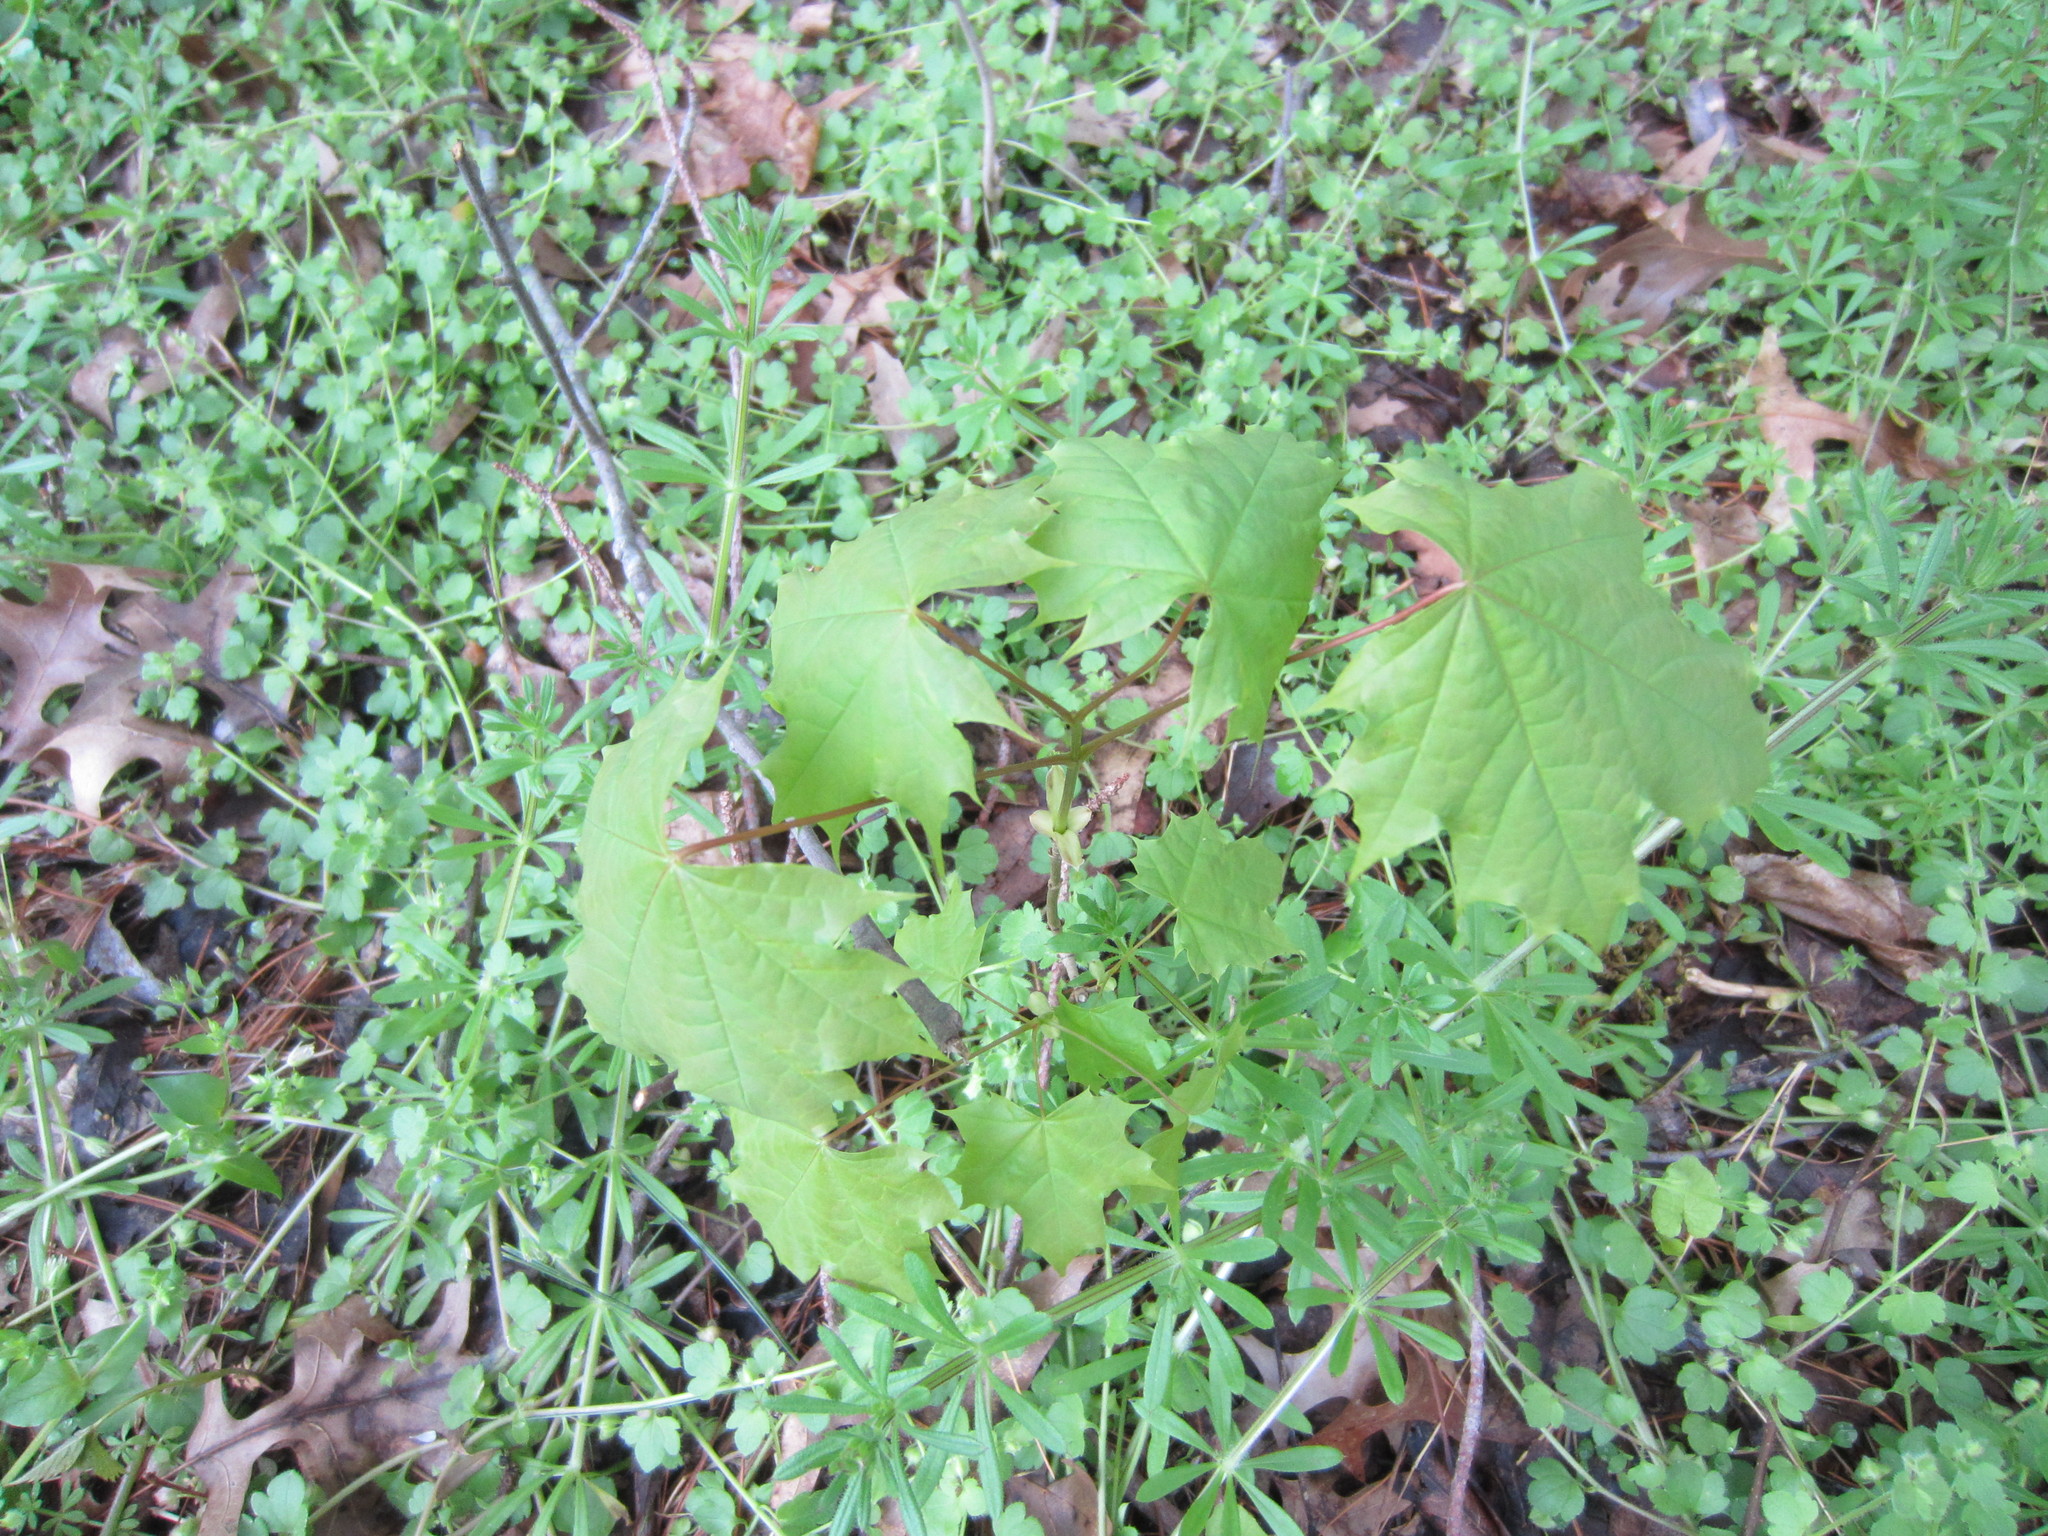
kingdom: Plantae
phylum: Tracheophyta
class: Magnoliopsida
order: Sapindales
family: Sapindaceae
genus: Acer
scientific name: Acer platanoides
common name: Norway maple
